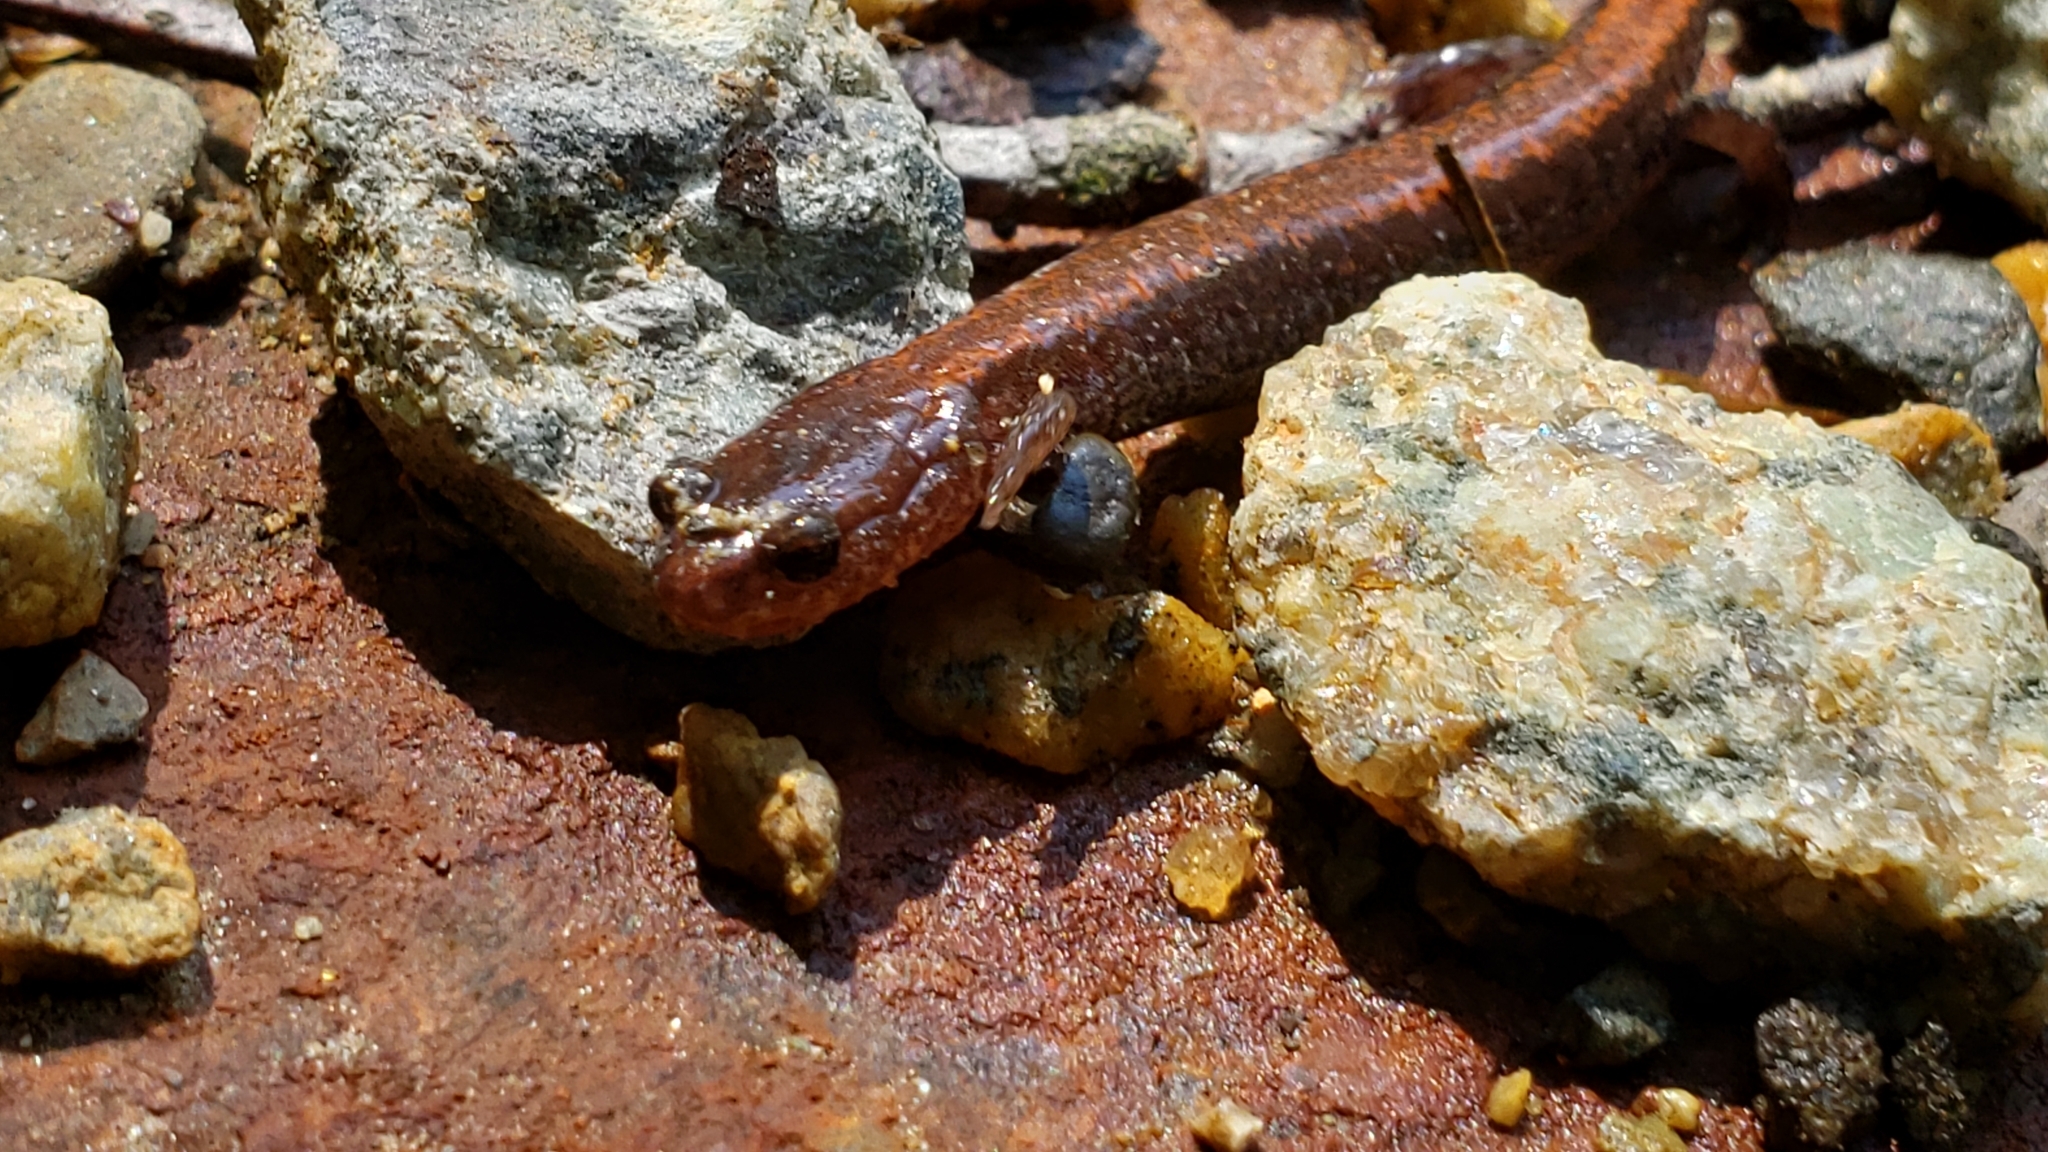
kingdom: Animalia
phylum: Chordata
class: Amphibia
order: Caudata
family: Plethodontidae
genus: Plethodon
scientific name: Plethodon cinereus
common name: Redback salamander
